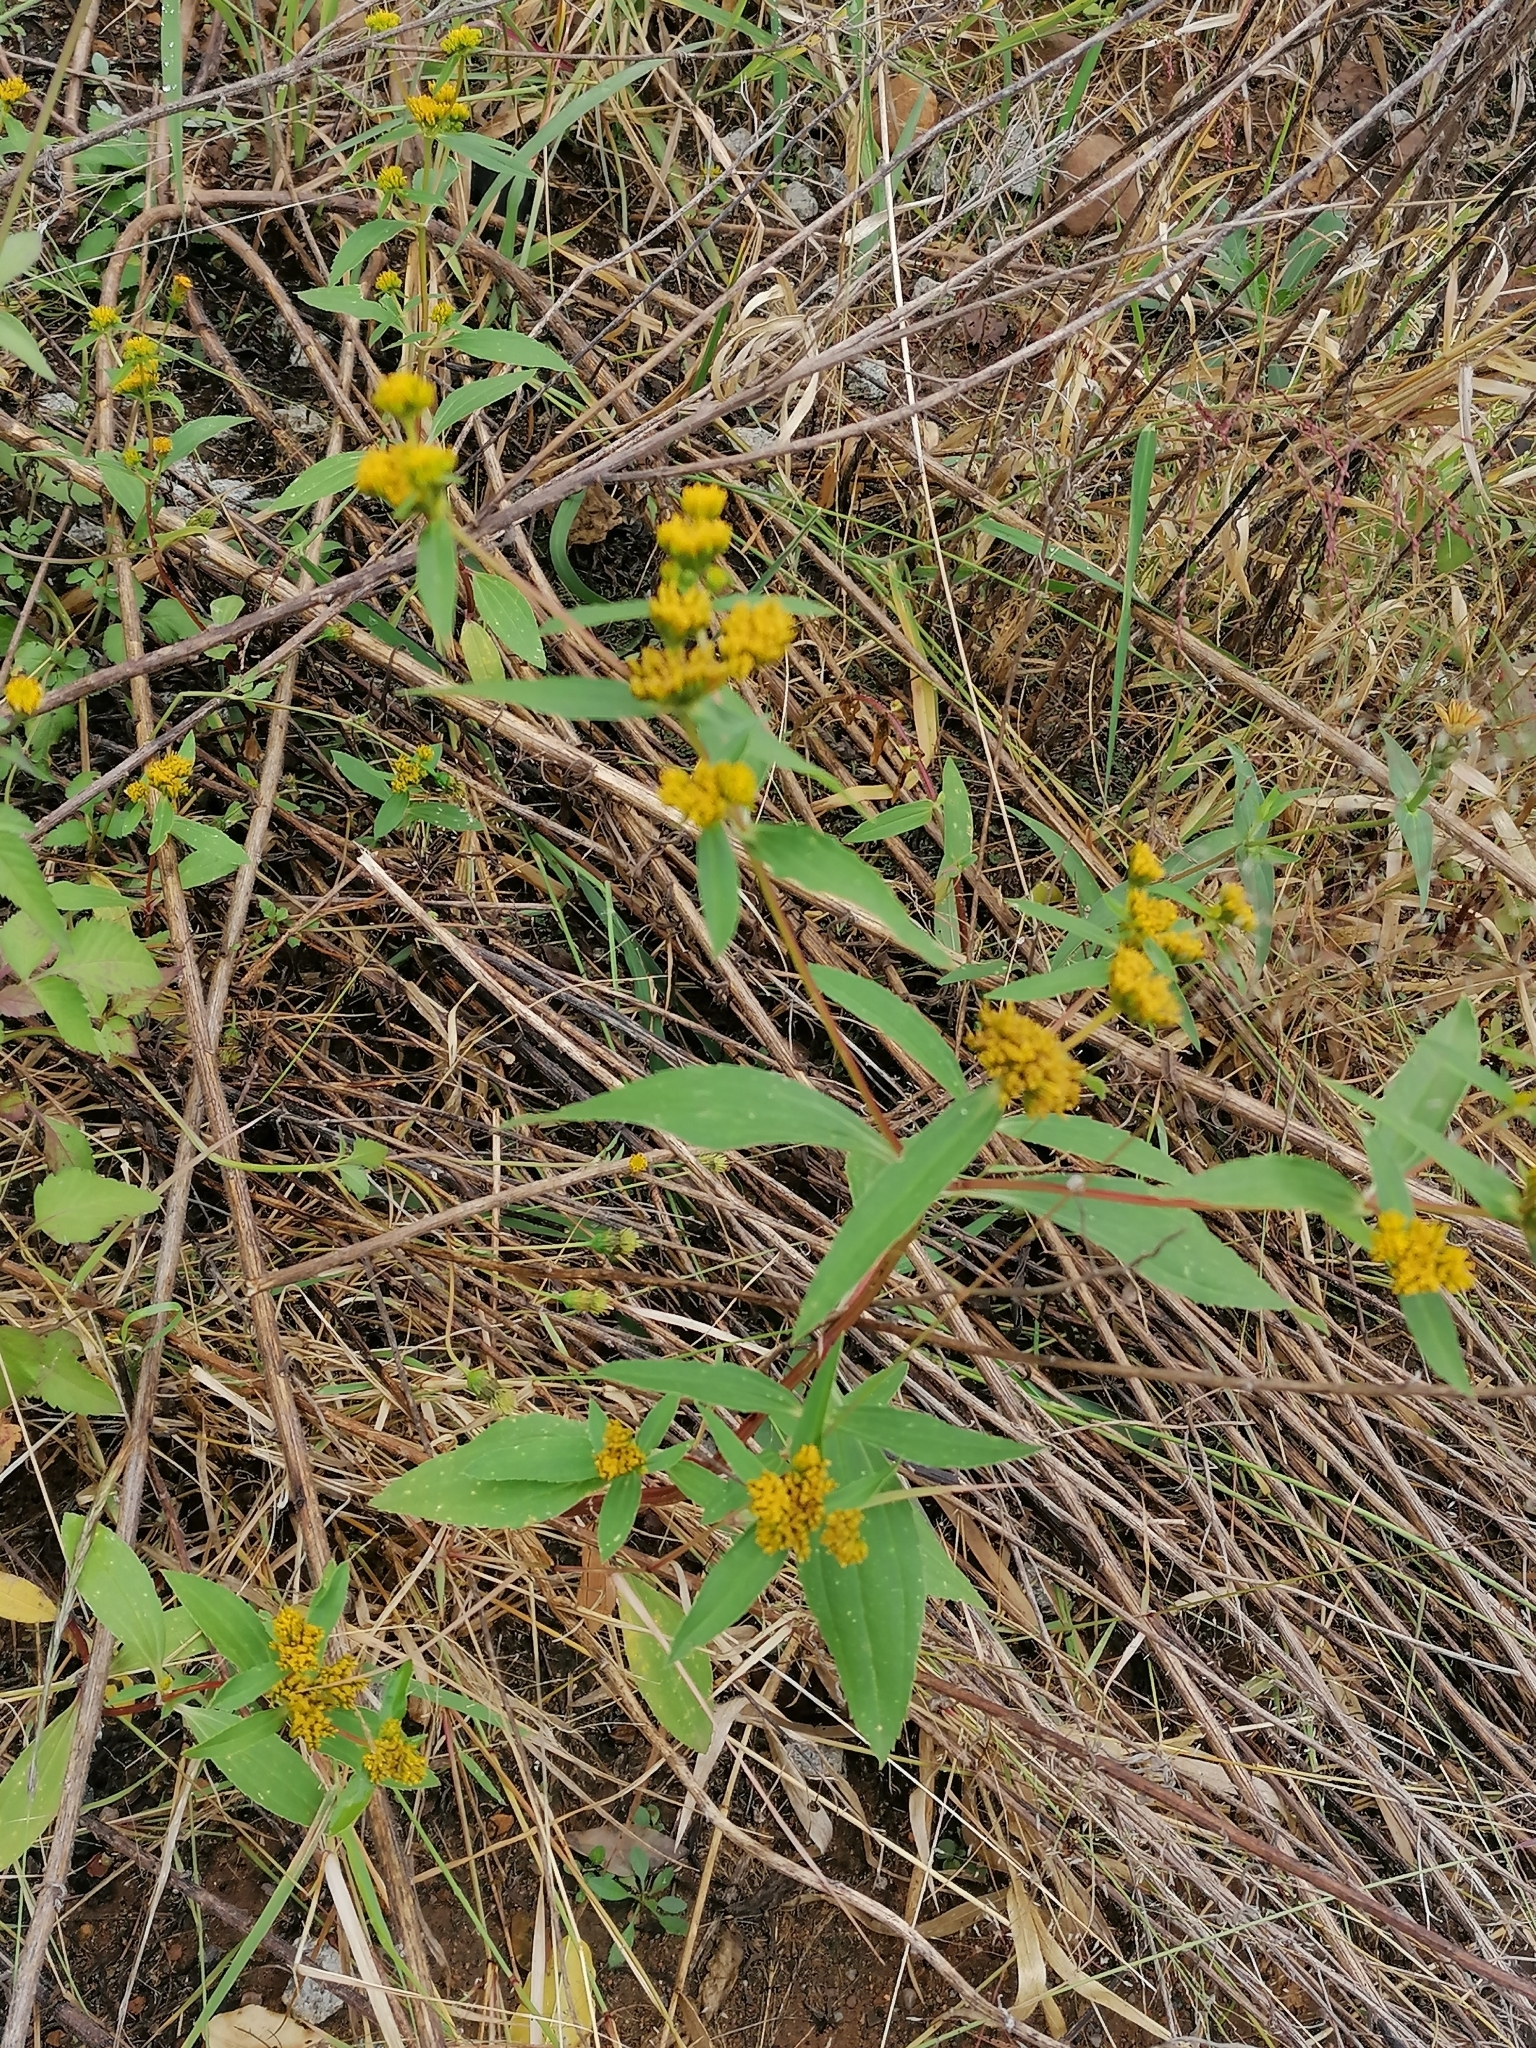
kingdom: Plantae
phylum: Tracheophyta
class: Magnoliopsida
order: Asterales
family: Asteraceae
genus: Flaveria
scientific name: Flaveria bidentis
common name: Coastal plain yellowtops
